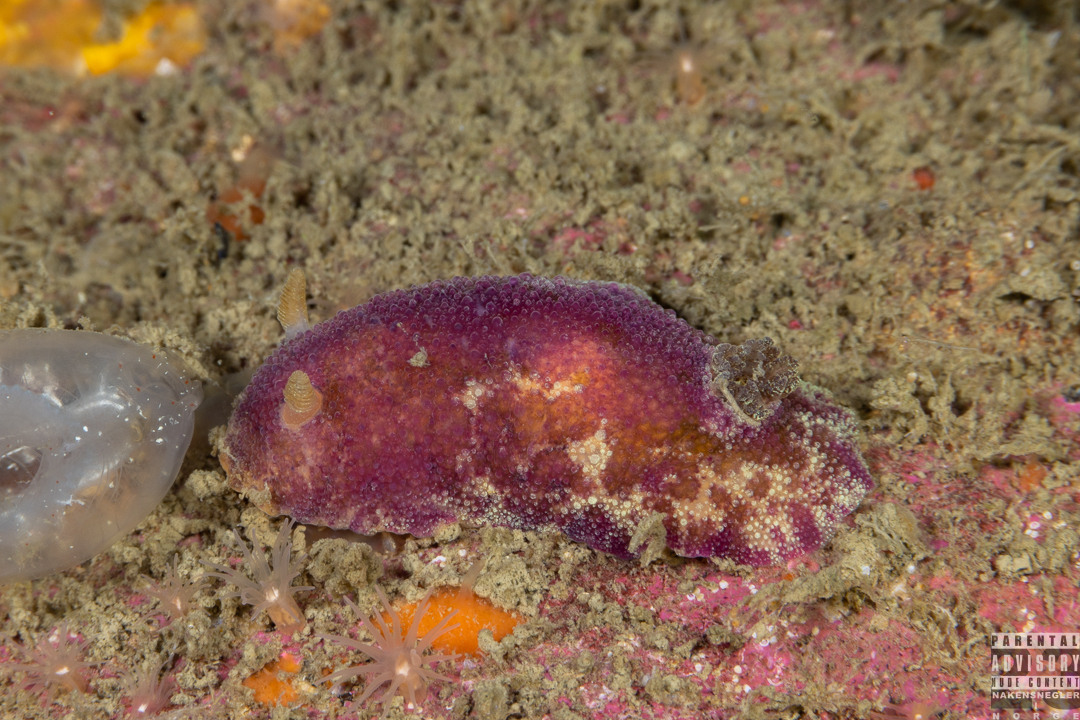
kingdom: Animalia
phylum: Mollusca
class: Gastropoda
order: Nudibranchia
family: Dorididae
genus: Doris
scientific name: Doris pseudoargus
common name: Sea lemon
